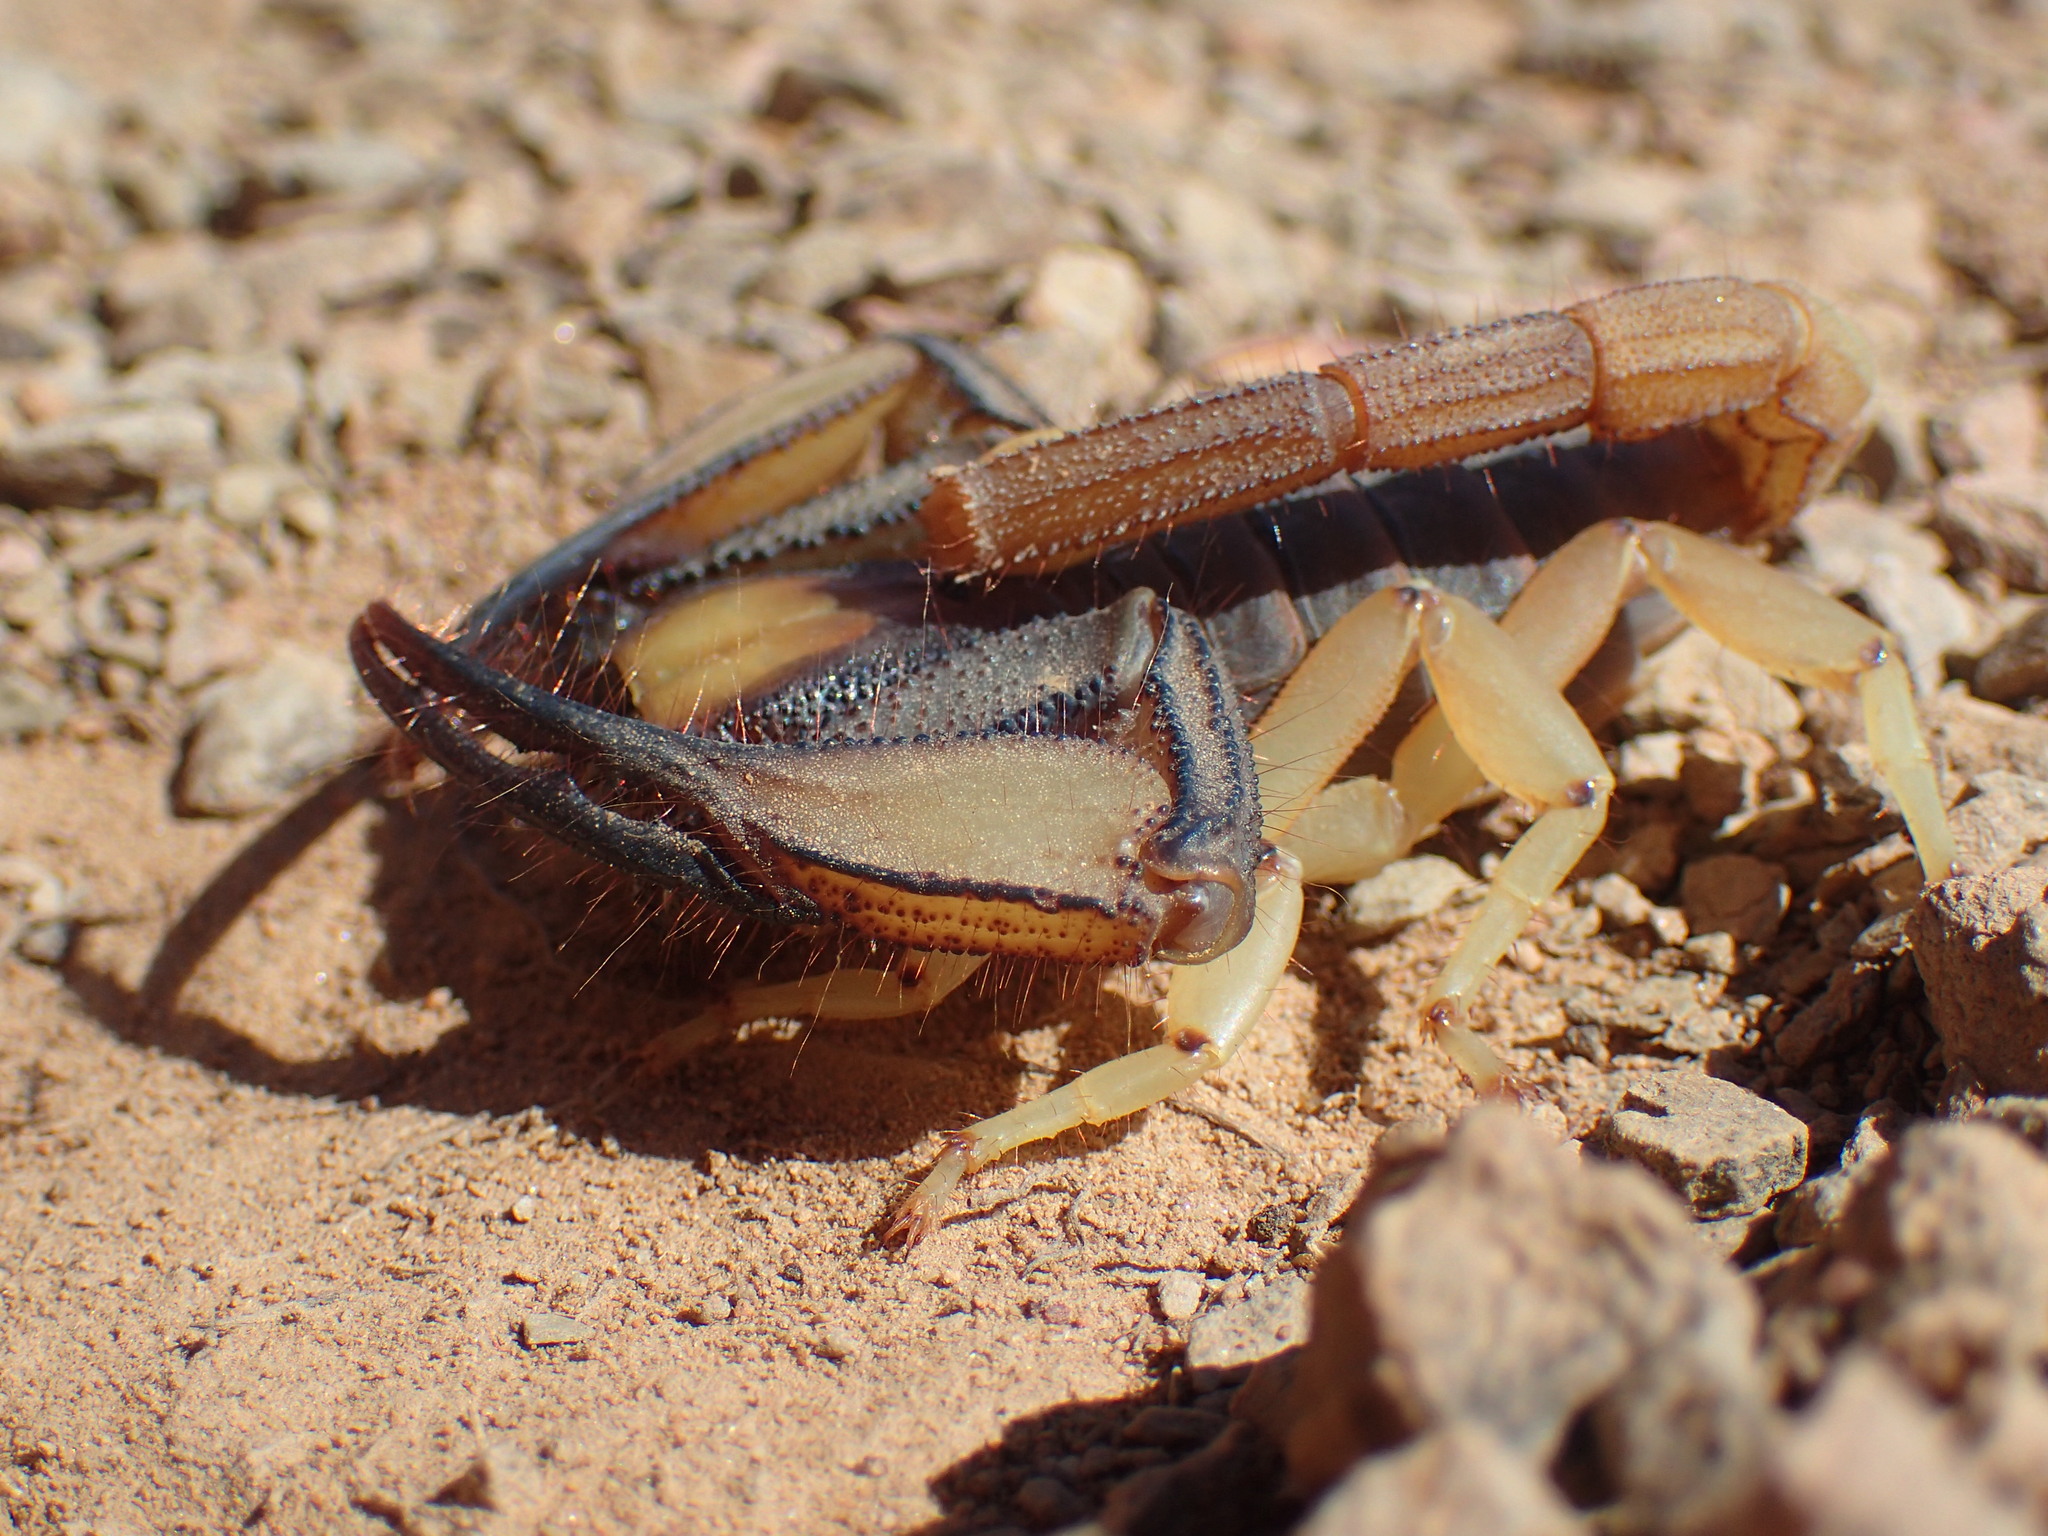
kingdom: Animalia
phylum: Arthropoda
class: Arachnida
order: Scorpiones
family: Scorpionidae
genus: Opistophthalmus
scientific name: Opistophthalmus karrooensis
